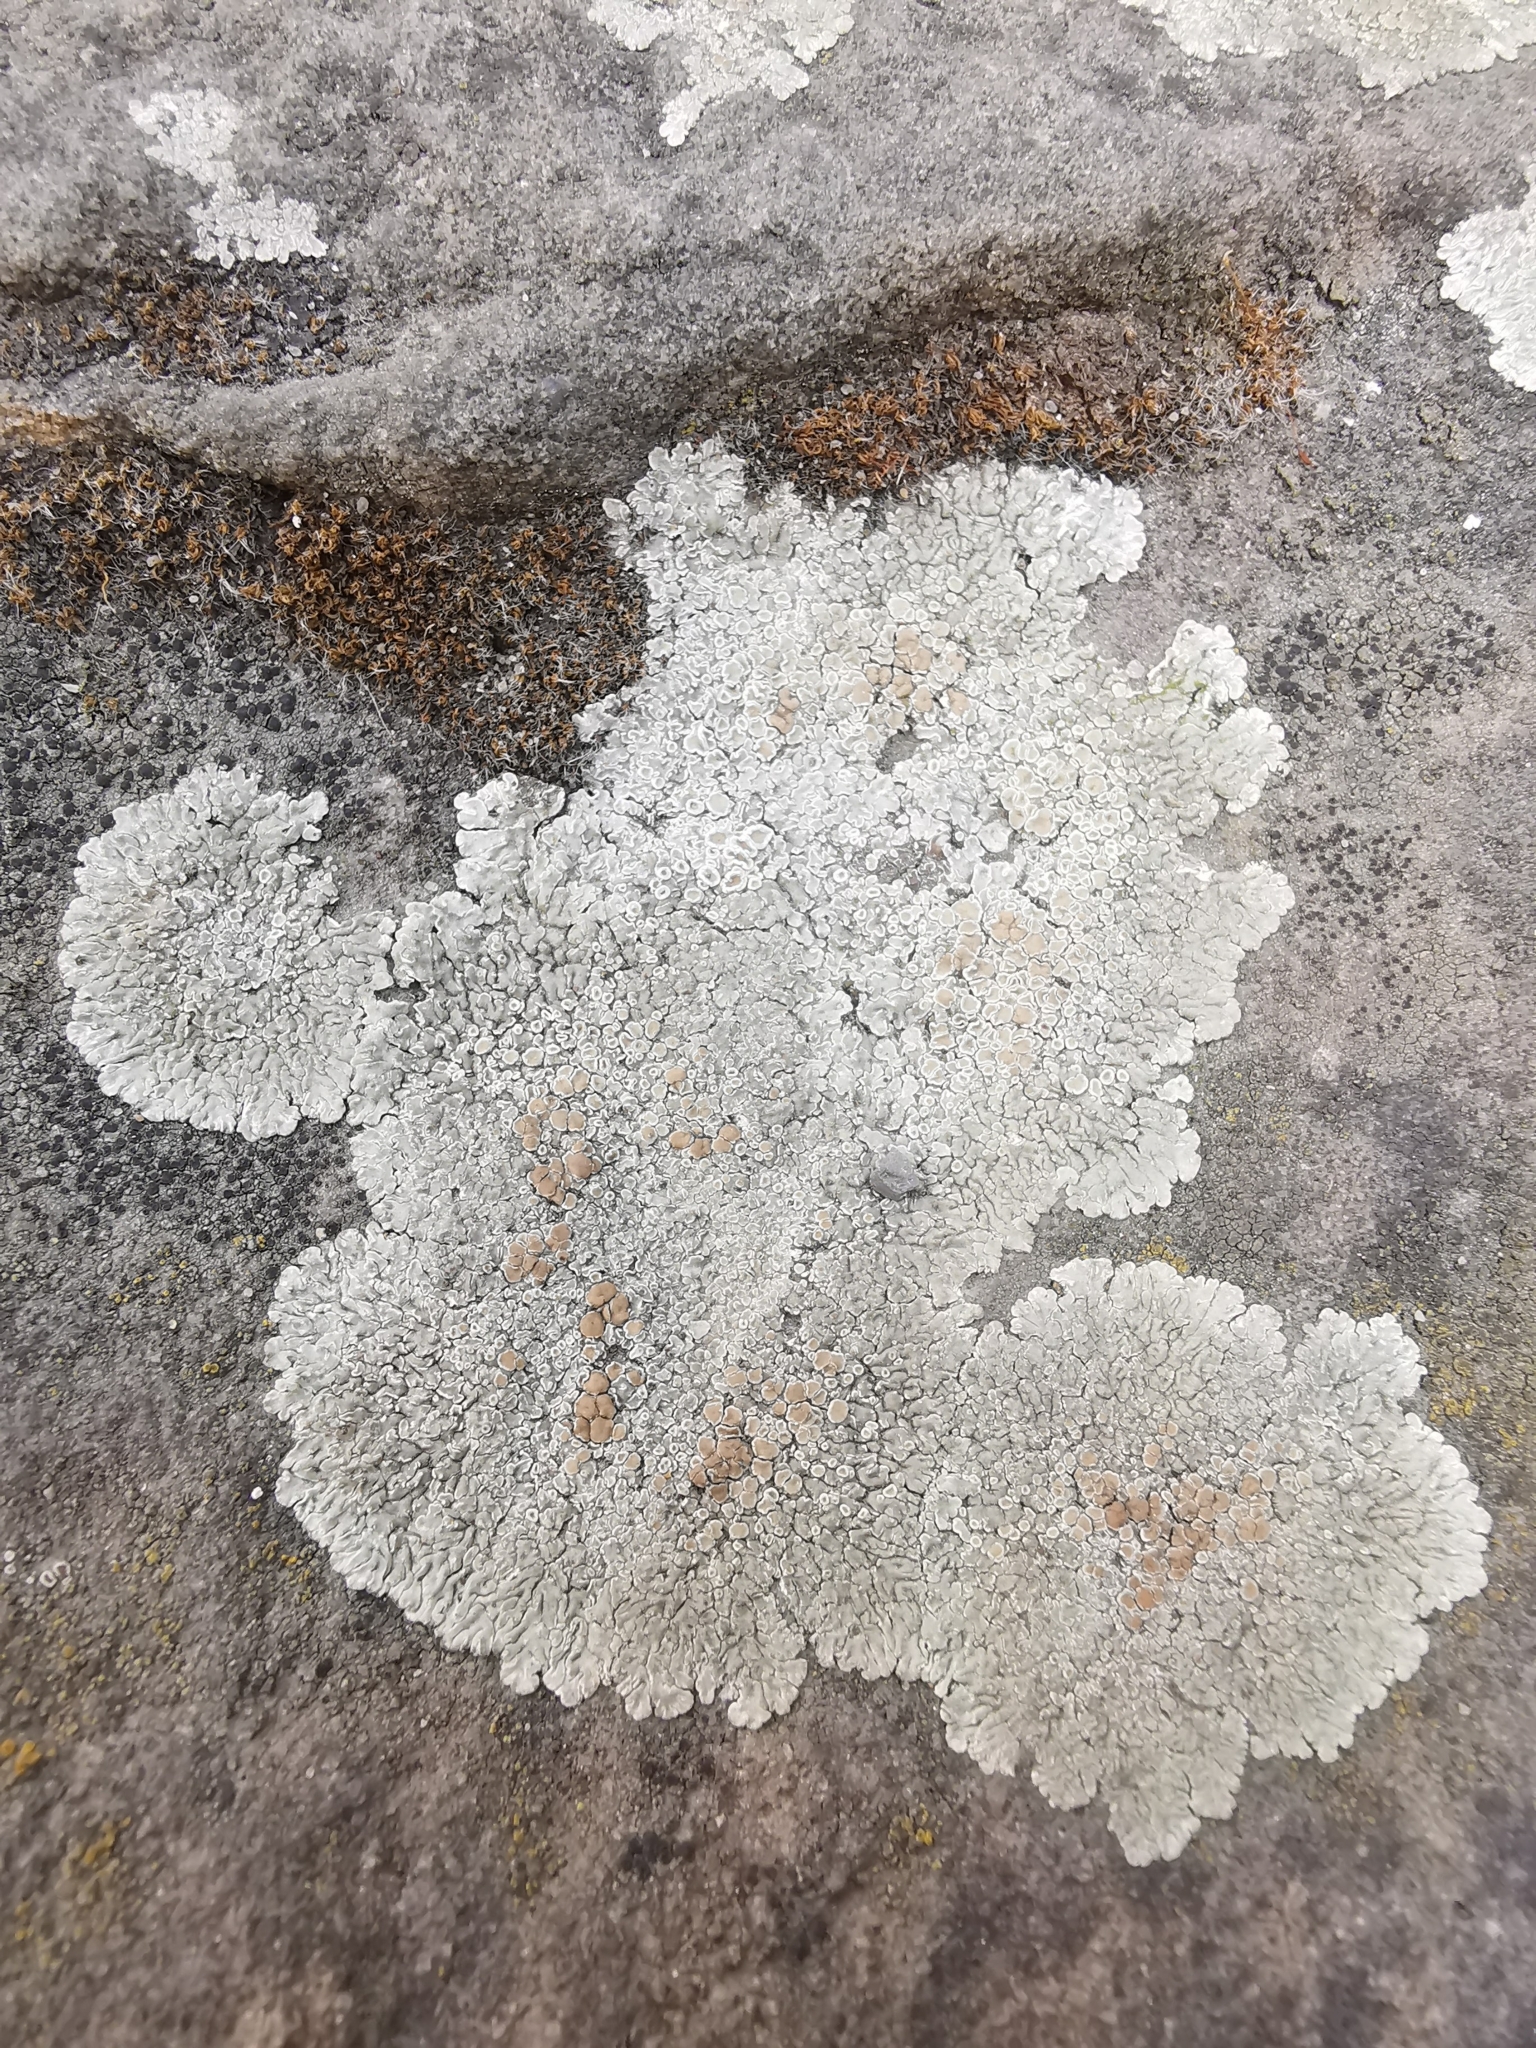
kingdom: Fungi
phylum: Ascomycota
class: Lecanoromycetes
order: Lecanorales
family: Lecanoraceae
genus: Protoparmeliopsis
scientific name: Protoparmeliopsis muralis
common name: Stonewall rim lichen
